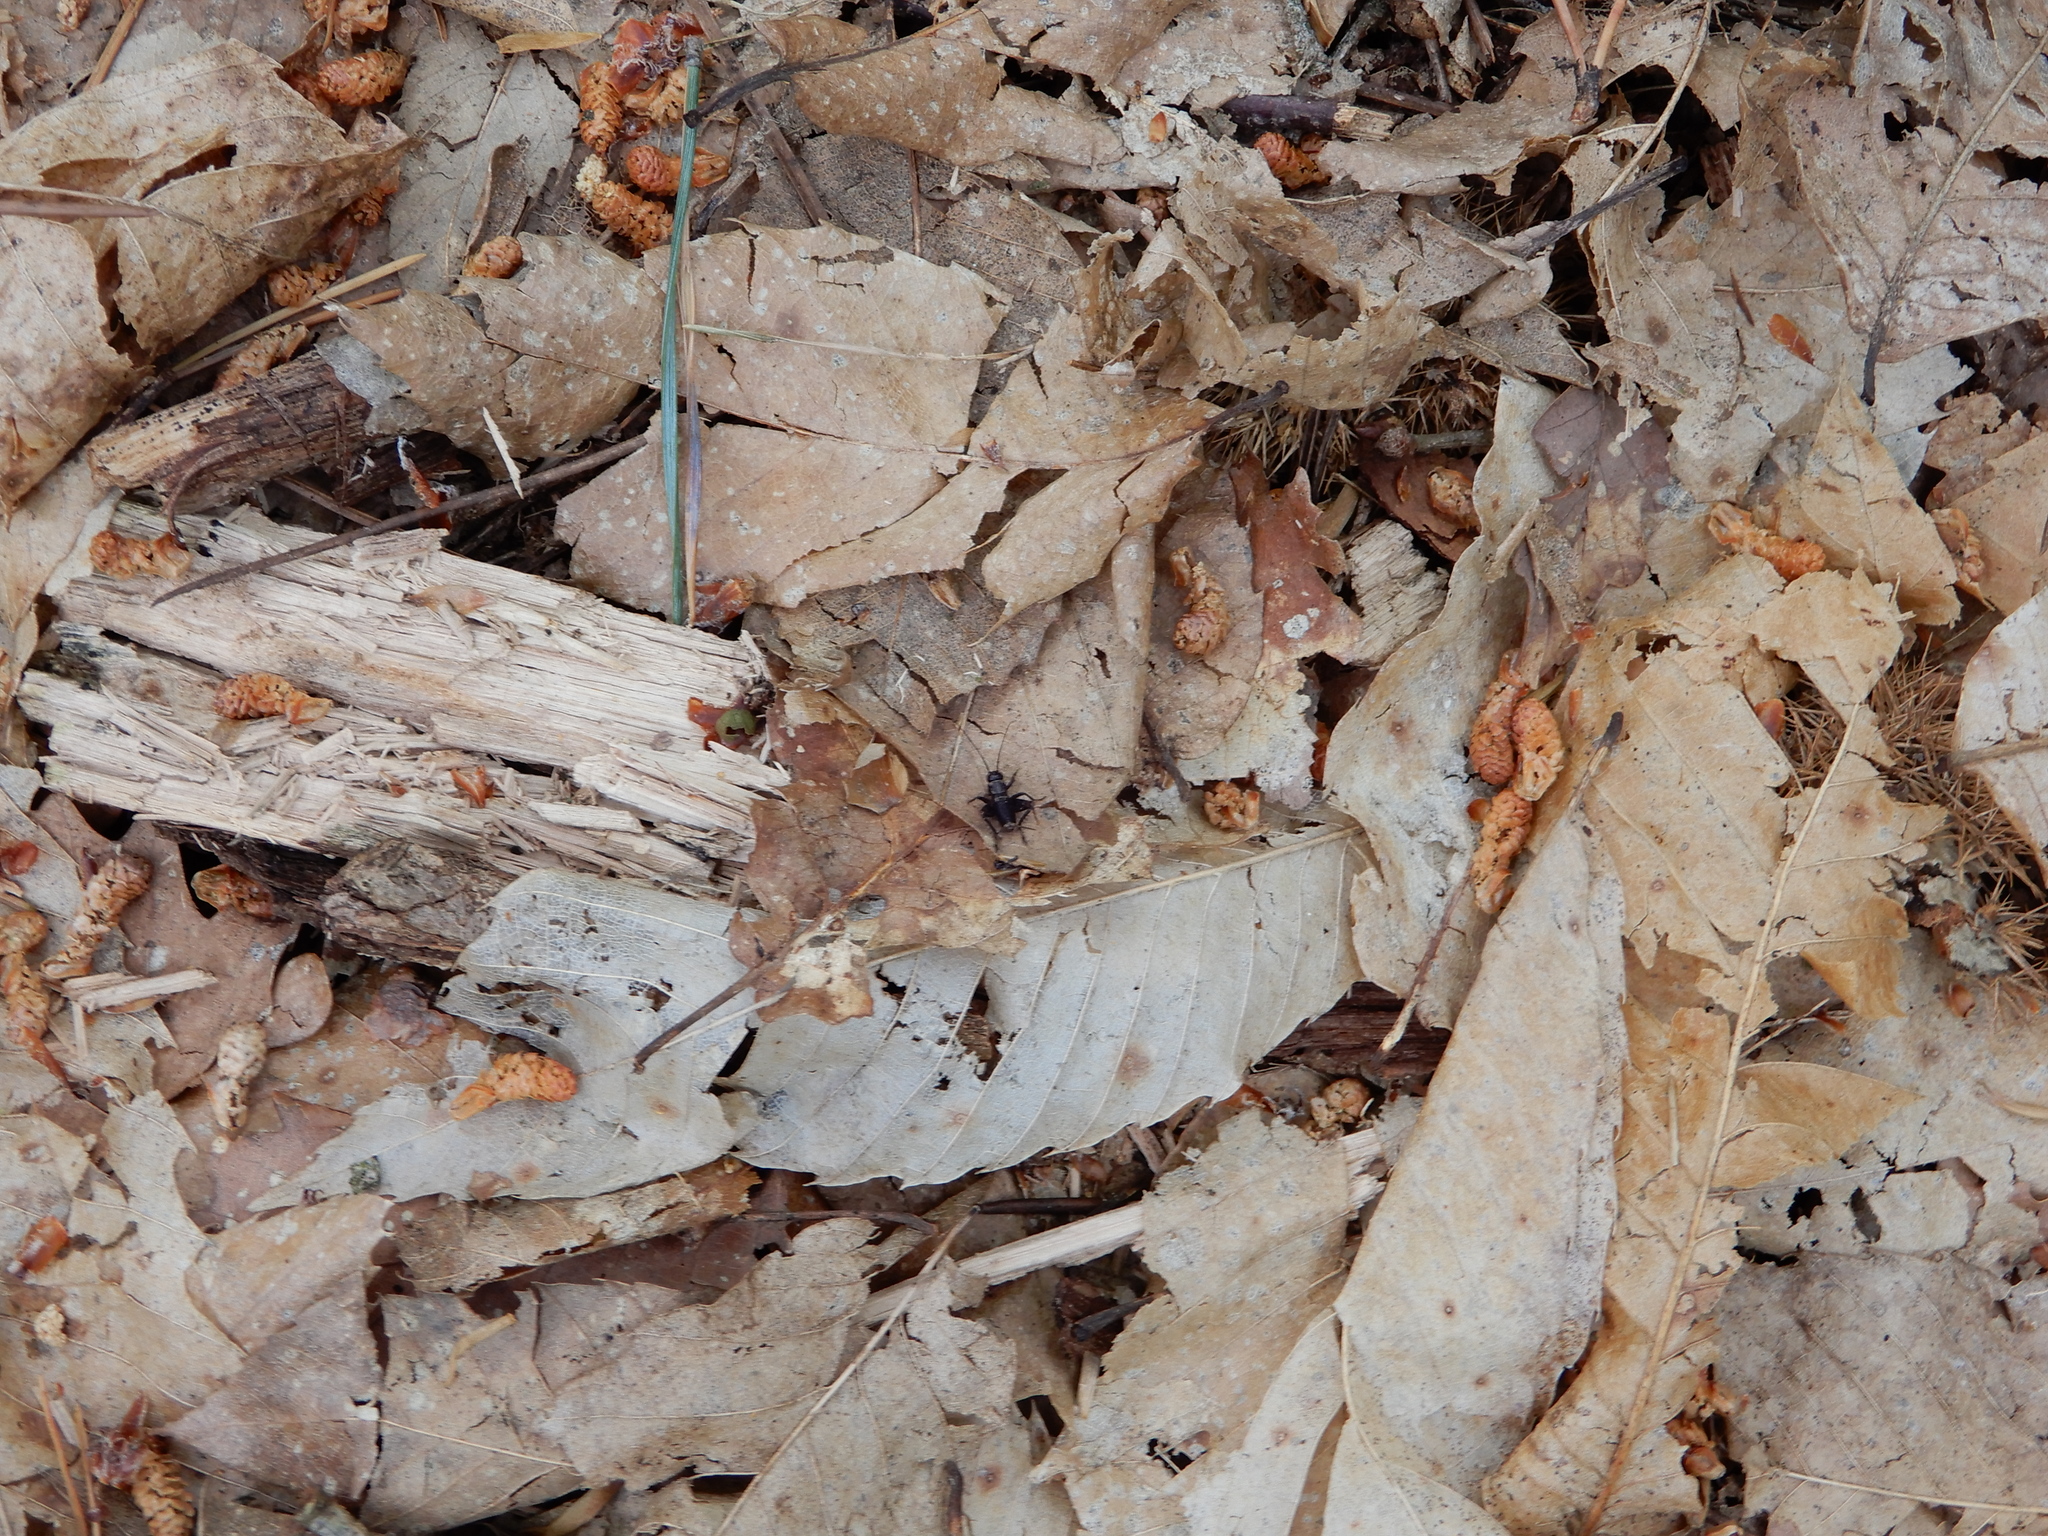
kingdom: Animalia
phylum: Arthropoda
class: Insecta
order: Orthoptera
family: Trigonidiidae
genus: Nemobius
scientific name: Nemobius sylvestris
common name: Wood-cricket
